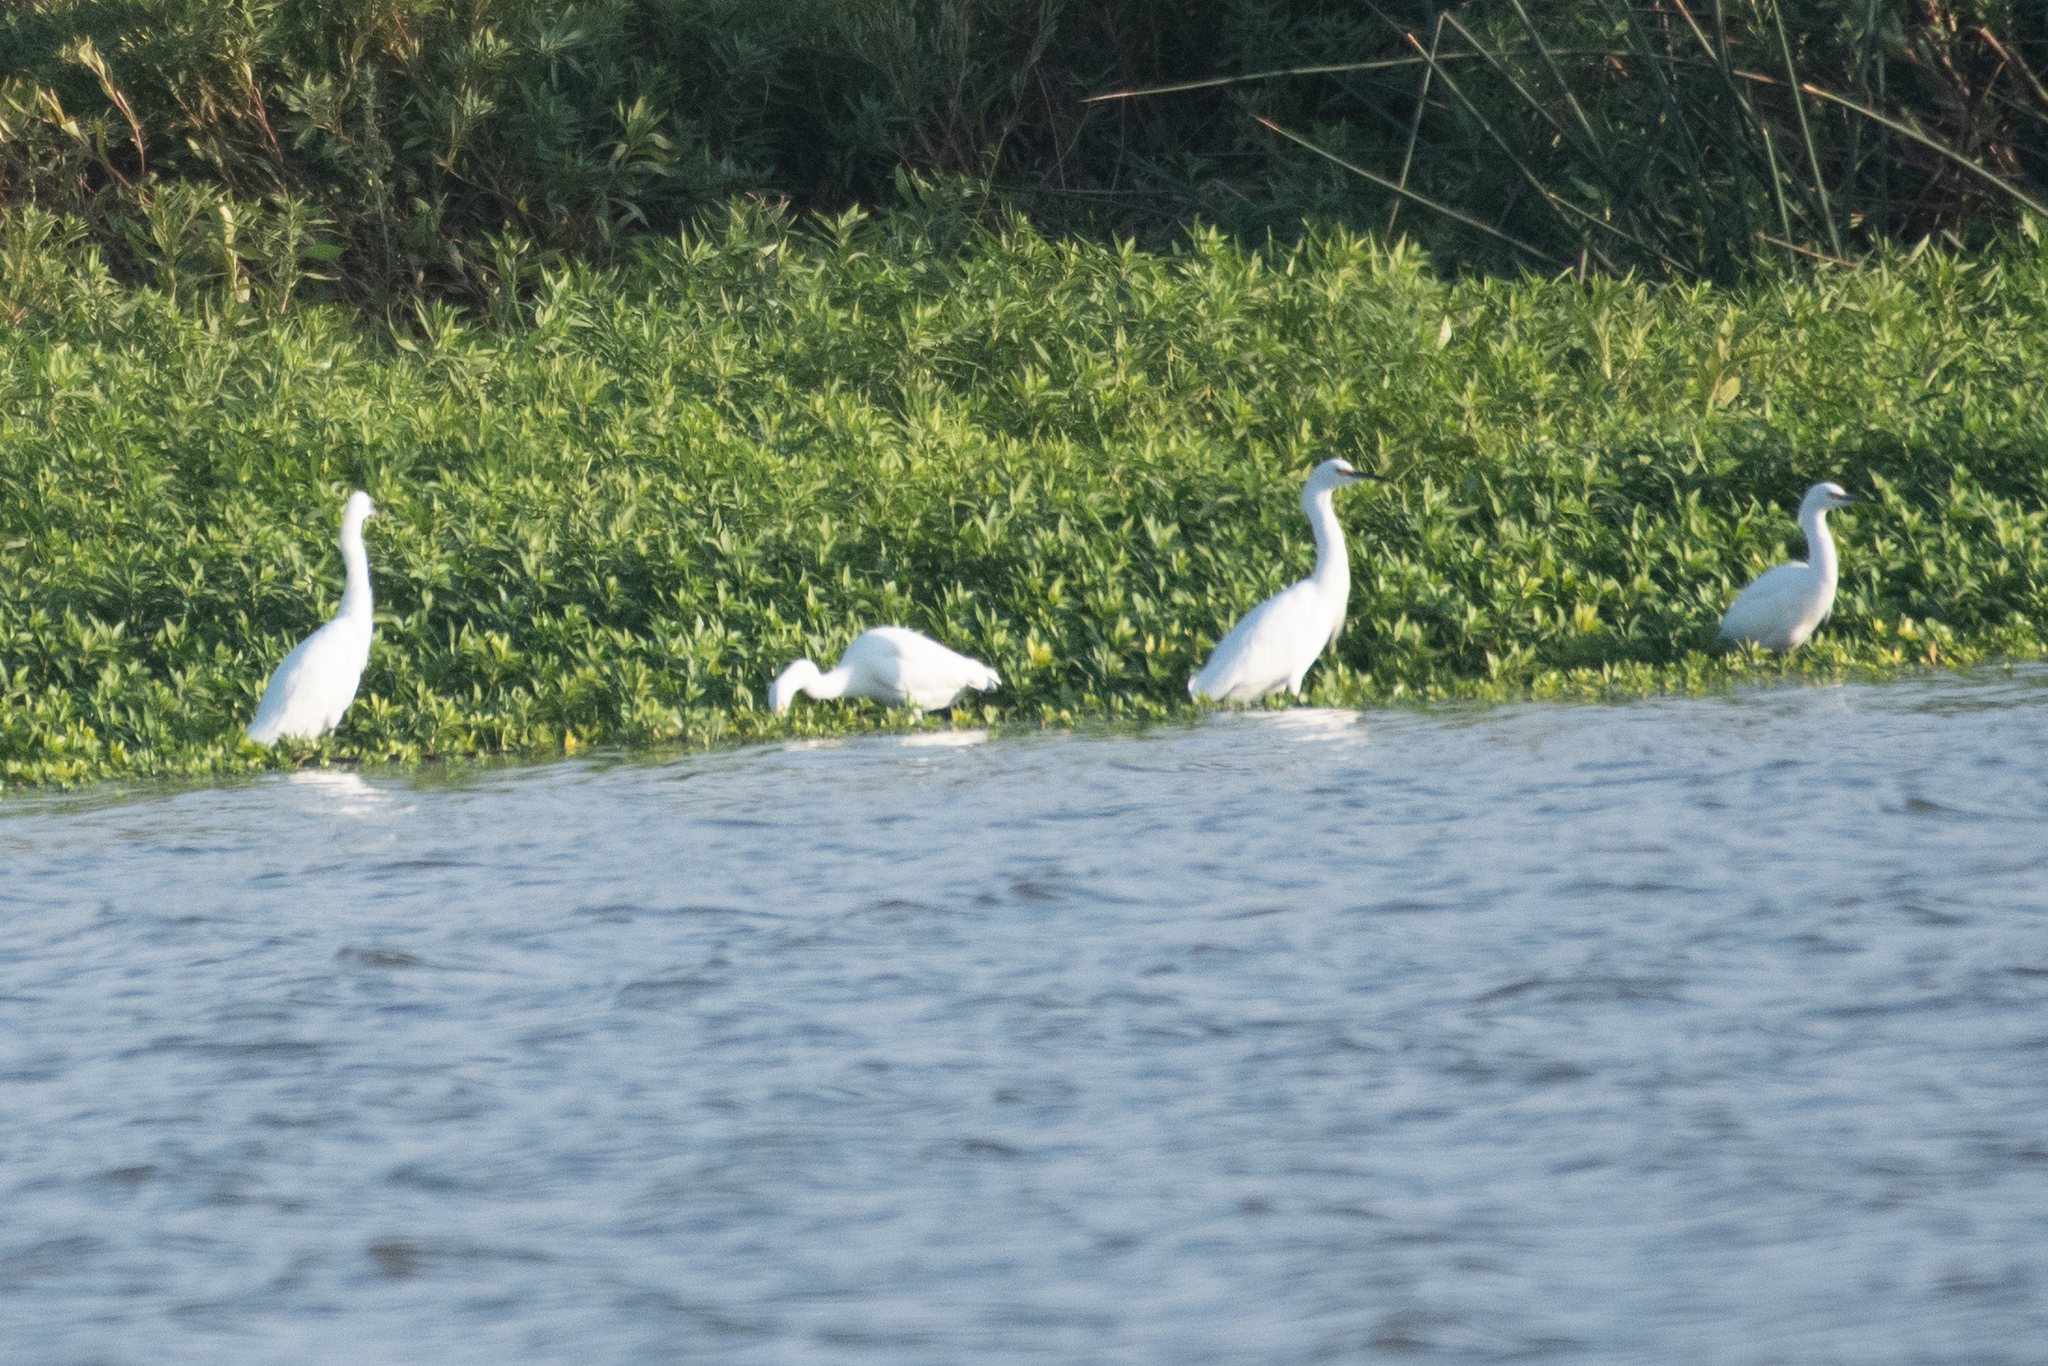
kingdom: Animalia
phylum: Chordata
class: Aves
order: Pelecaniformes
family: Ardeidae
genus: Egretta
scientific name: Egretta thula
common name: Snowy egret
